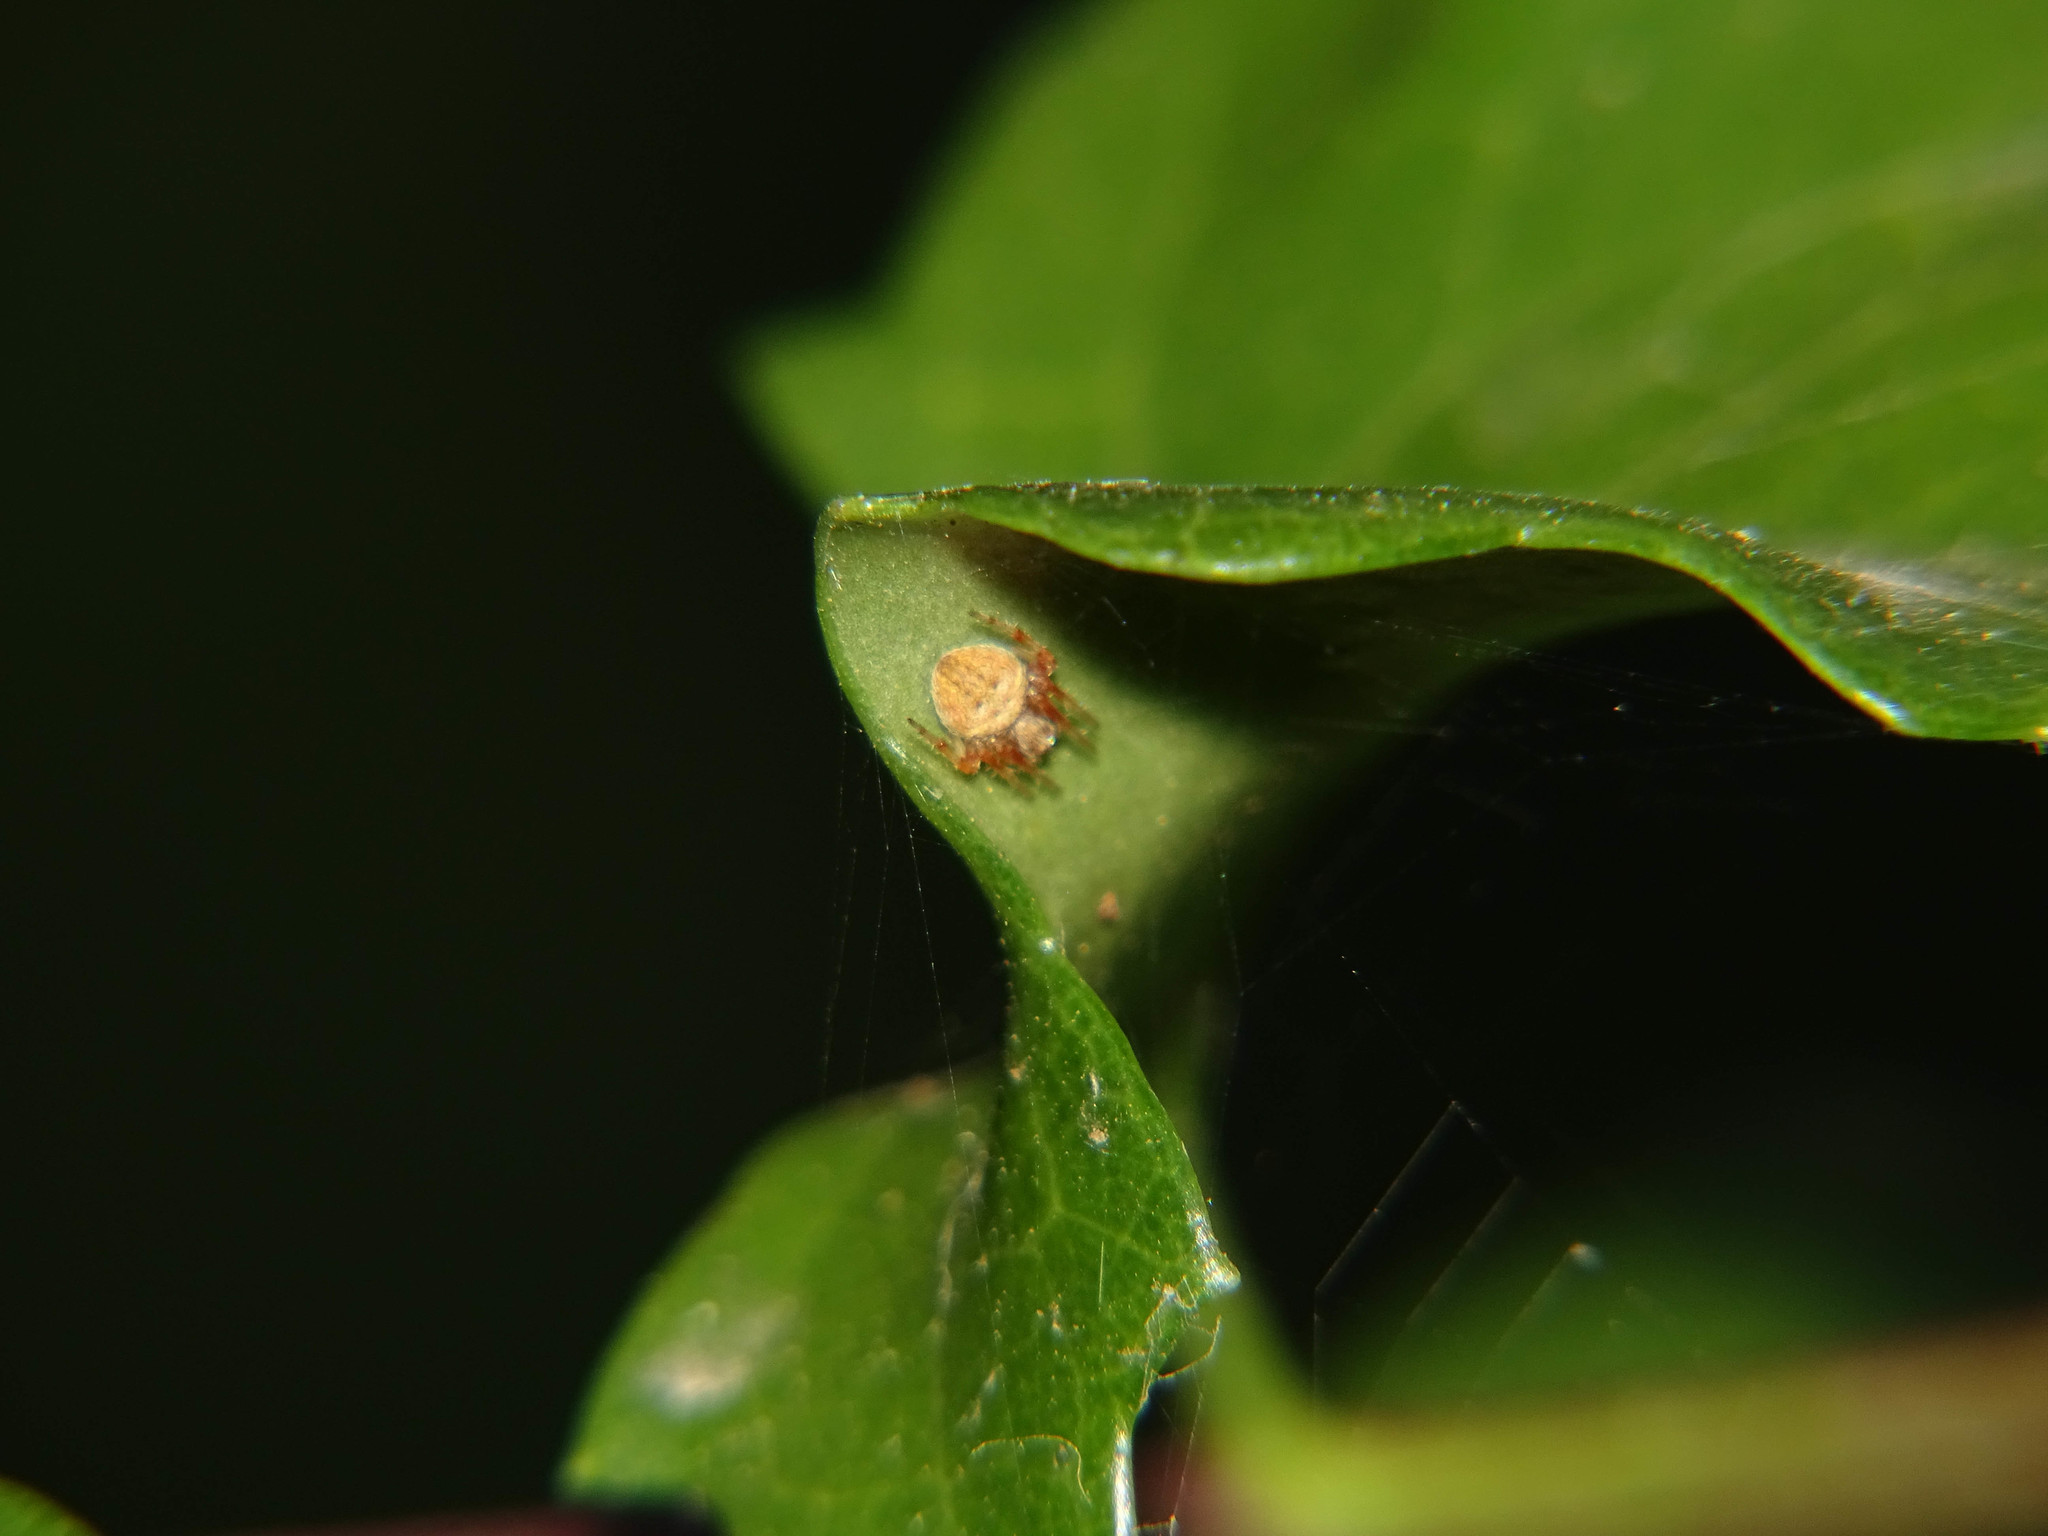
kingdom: Animalia
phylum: Arthropoda
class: Arachnida
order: Araneae
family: Araneidae
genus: Neoscona
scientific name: Neoscona subfusca
